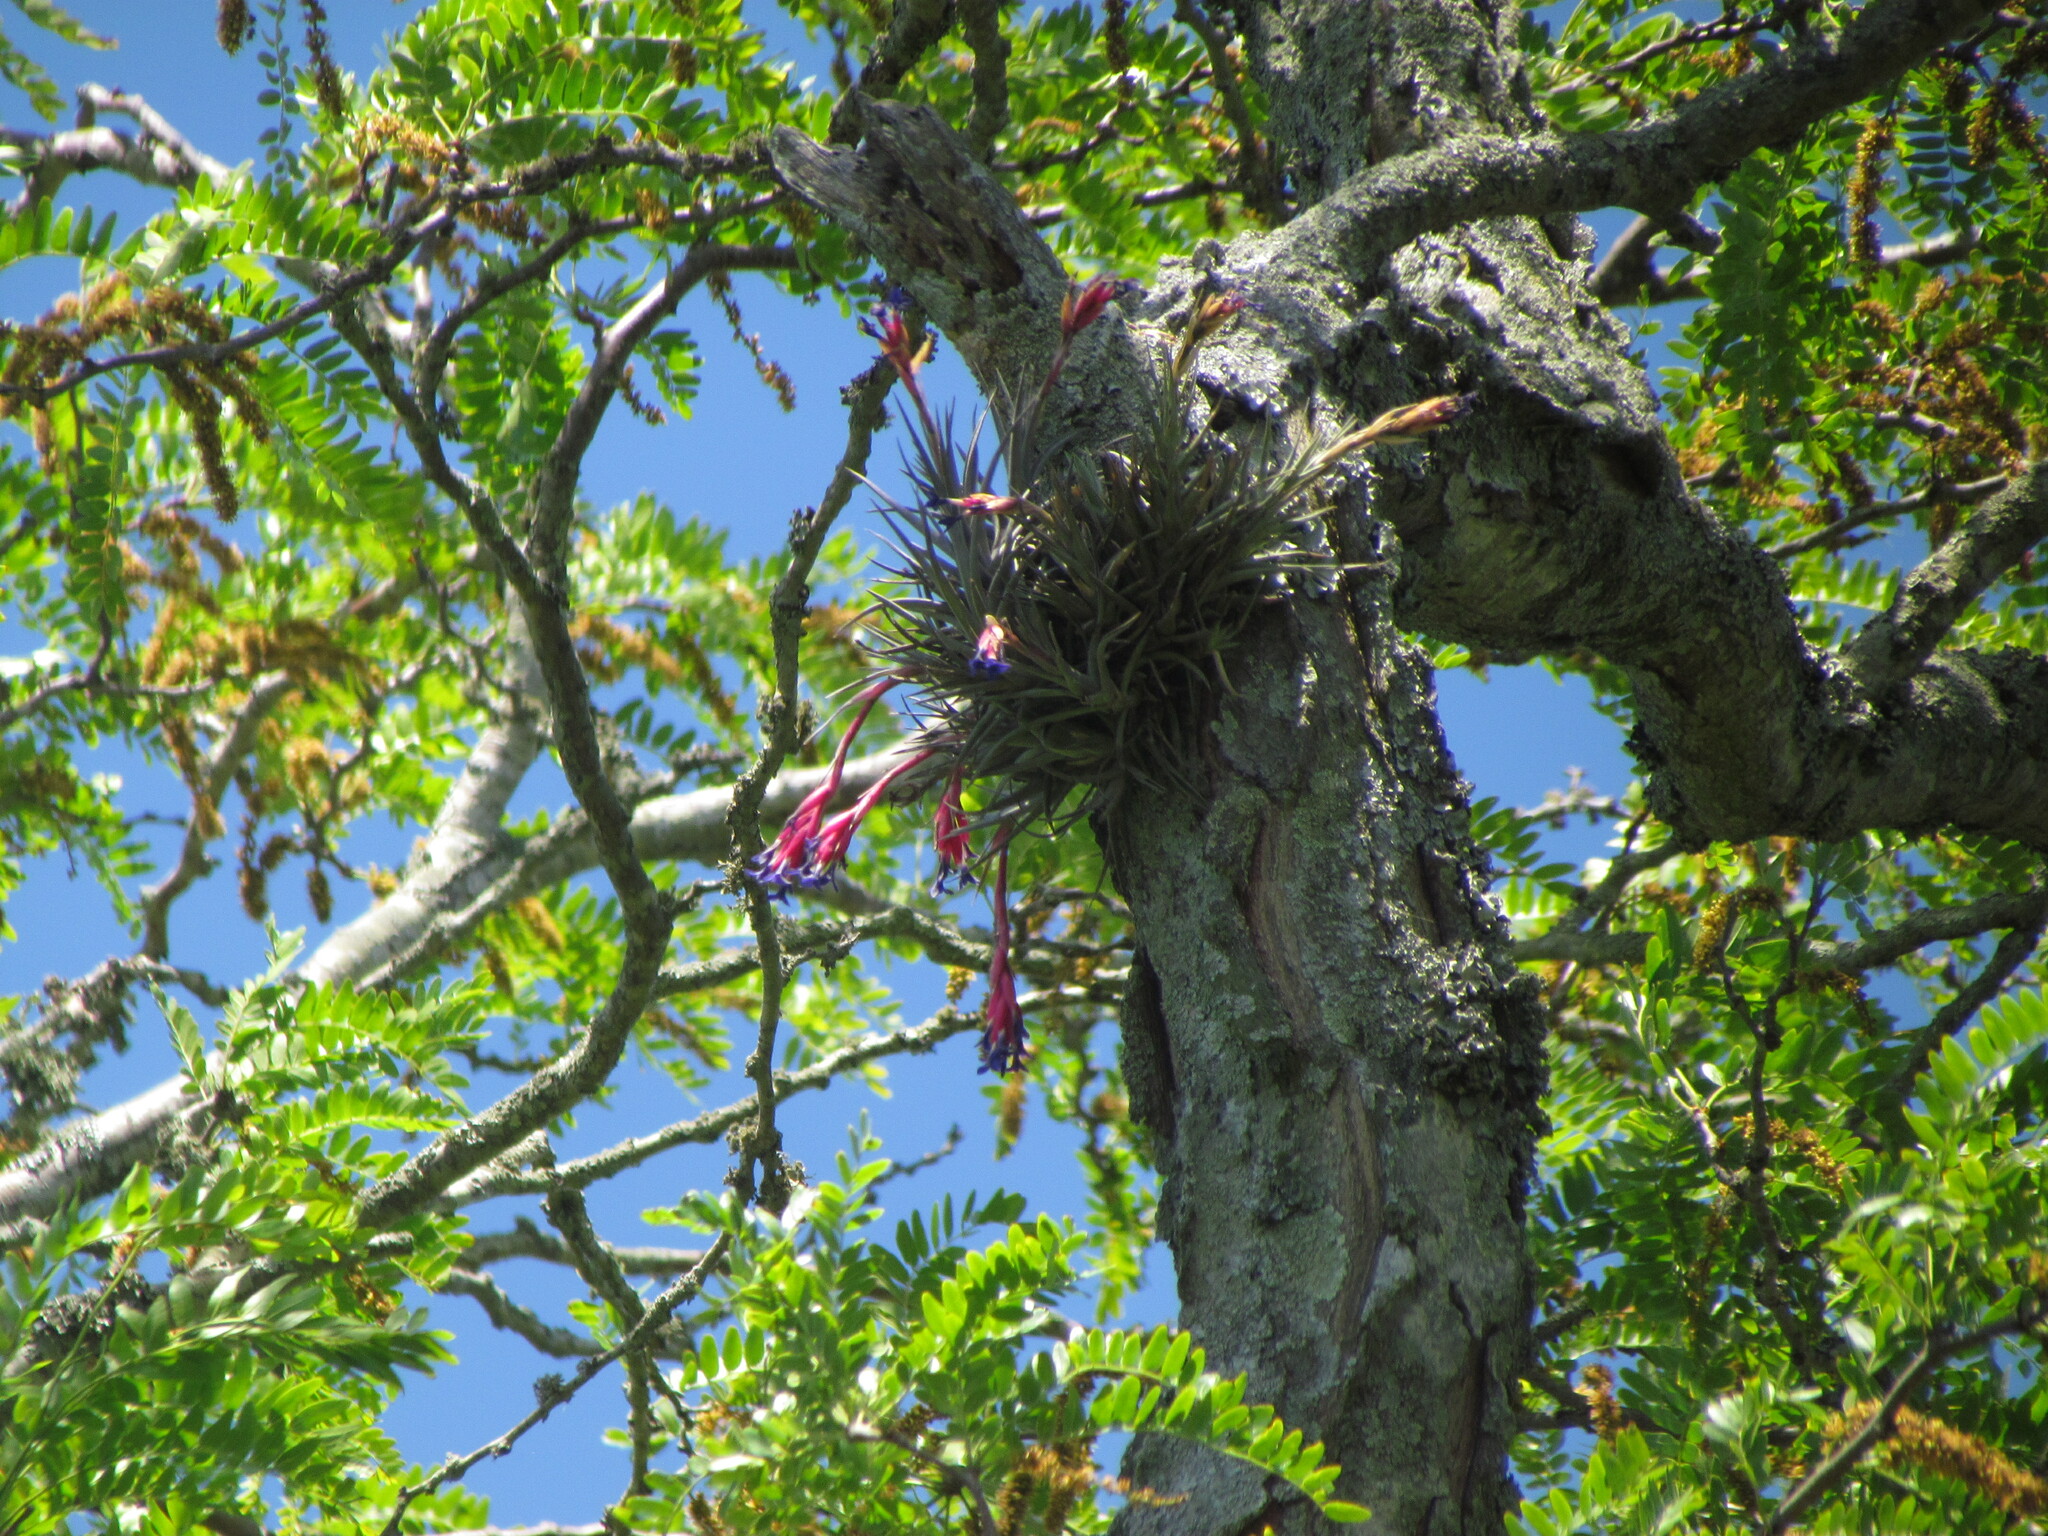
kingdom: Plantae
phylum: Tracheophyta
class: Liliopsida
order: Poales
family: Bromeliaceae
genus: Tillandsia
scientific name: Tillandsia aeranthos
